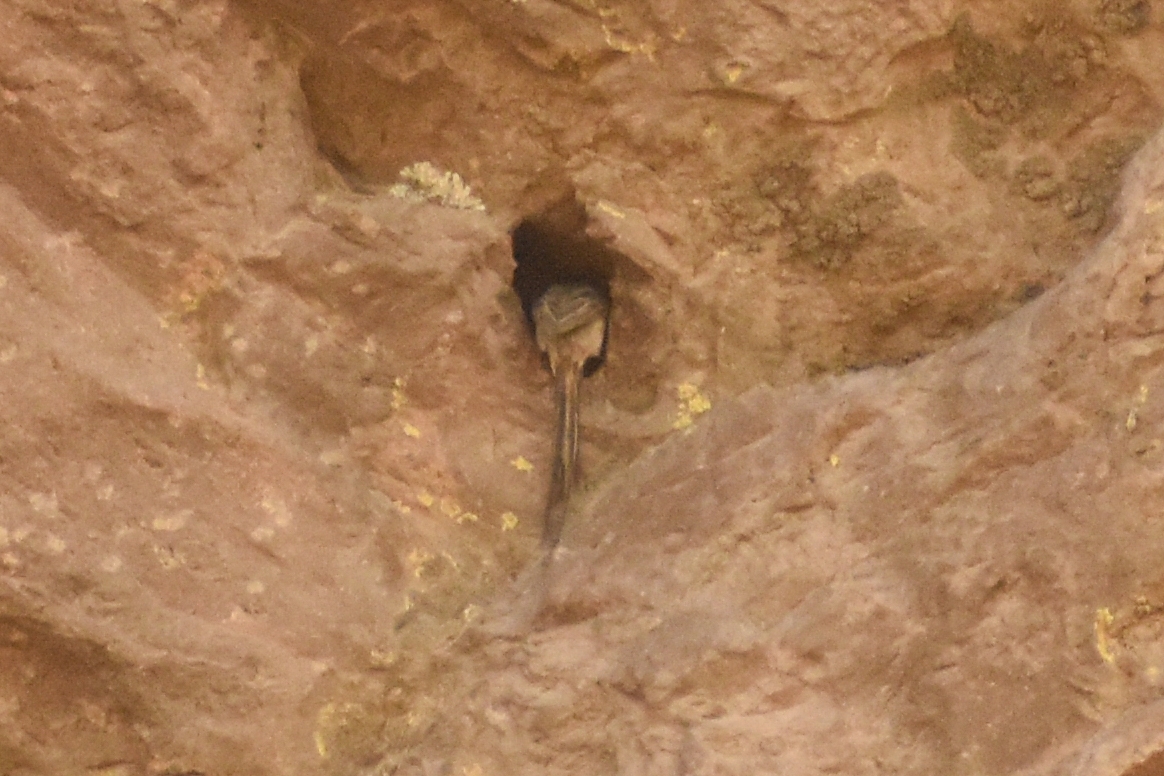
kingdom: Animalia
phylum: Chordata
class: Aves
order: Passeriformes
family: Furnariidae
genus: Leptasthenura
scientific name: Leptasthenura aegithaloides
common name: Plain-mantled tit-spinetail
